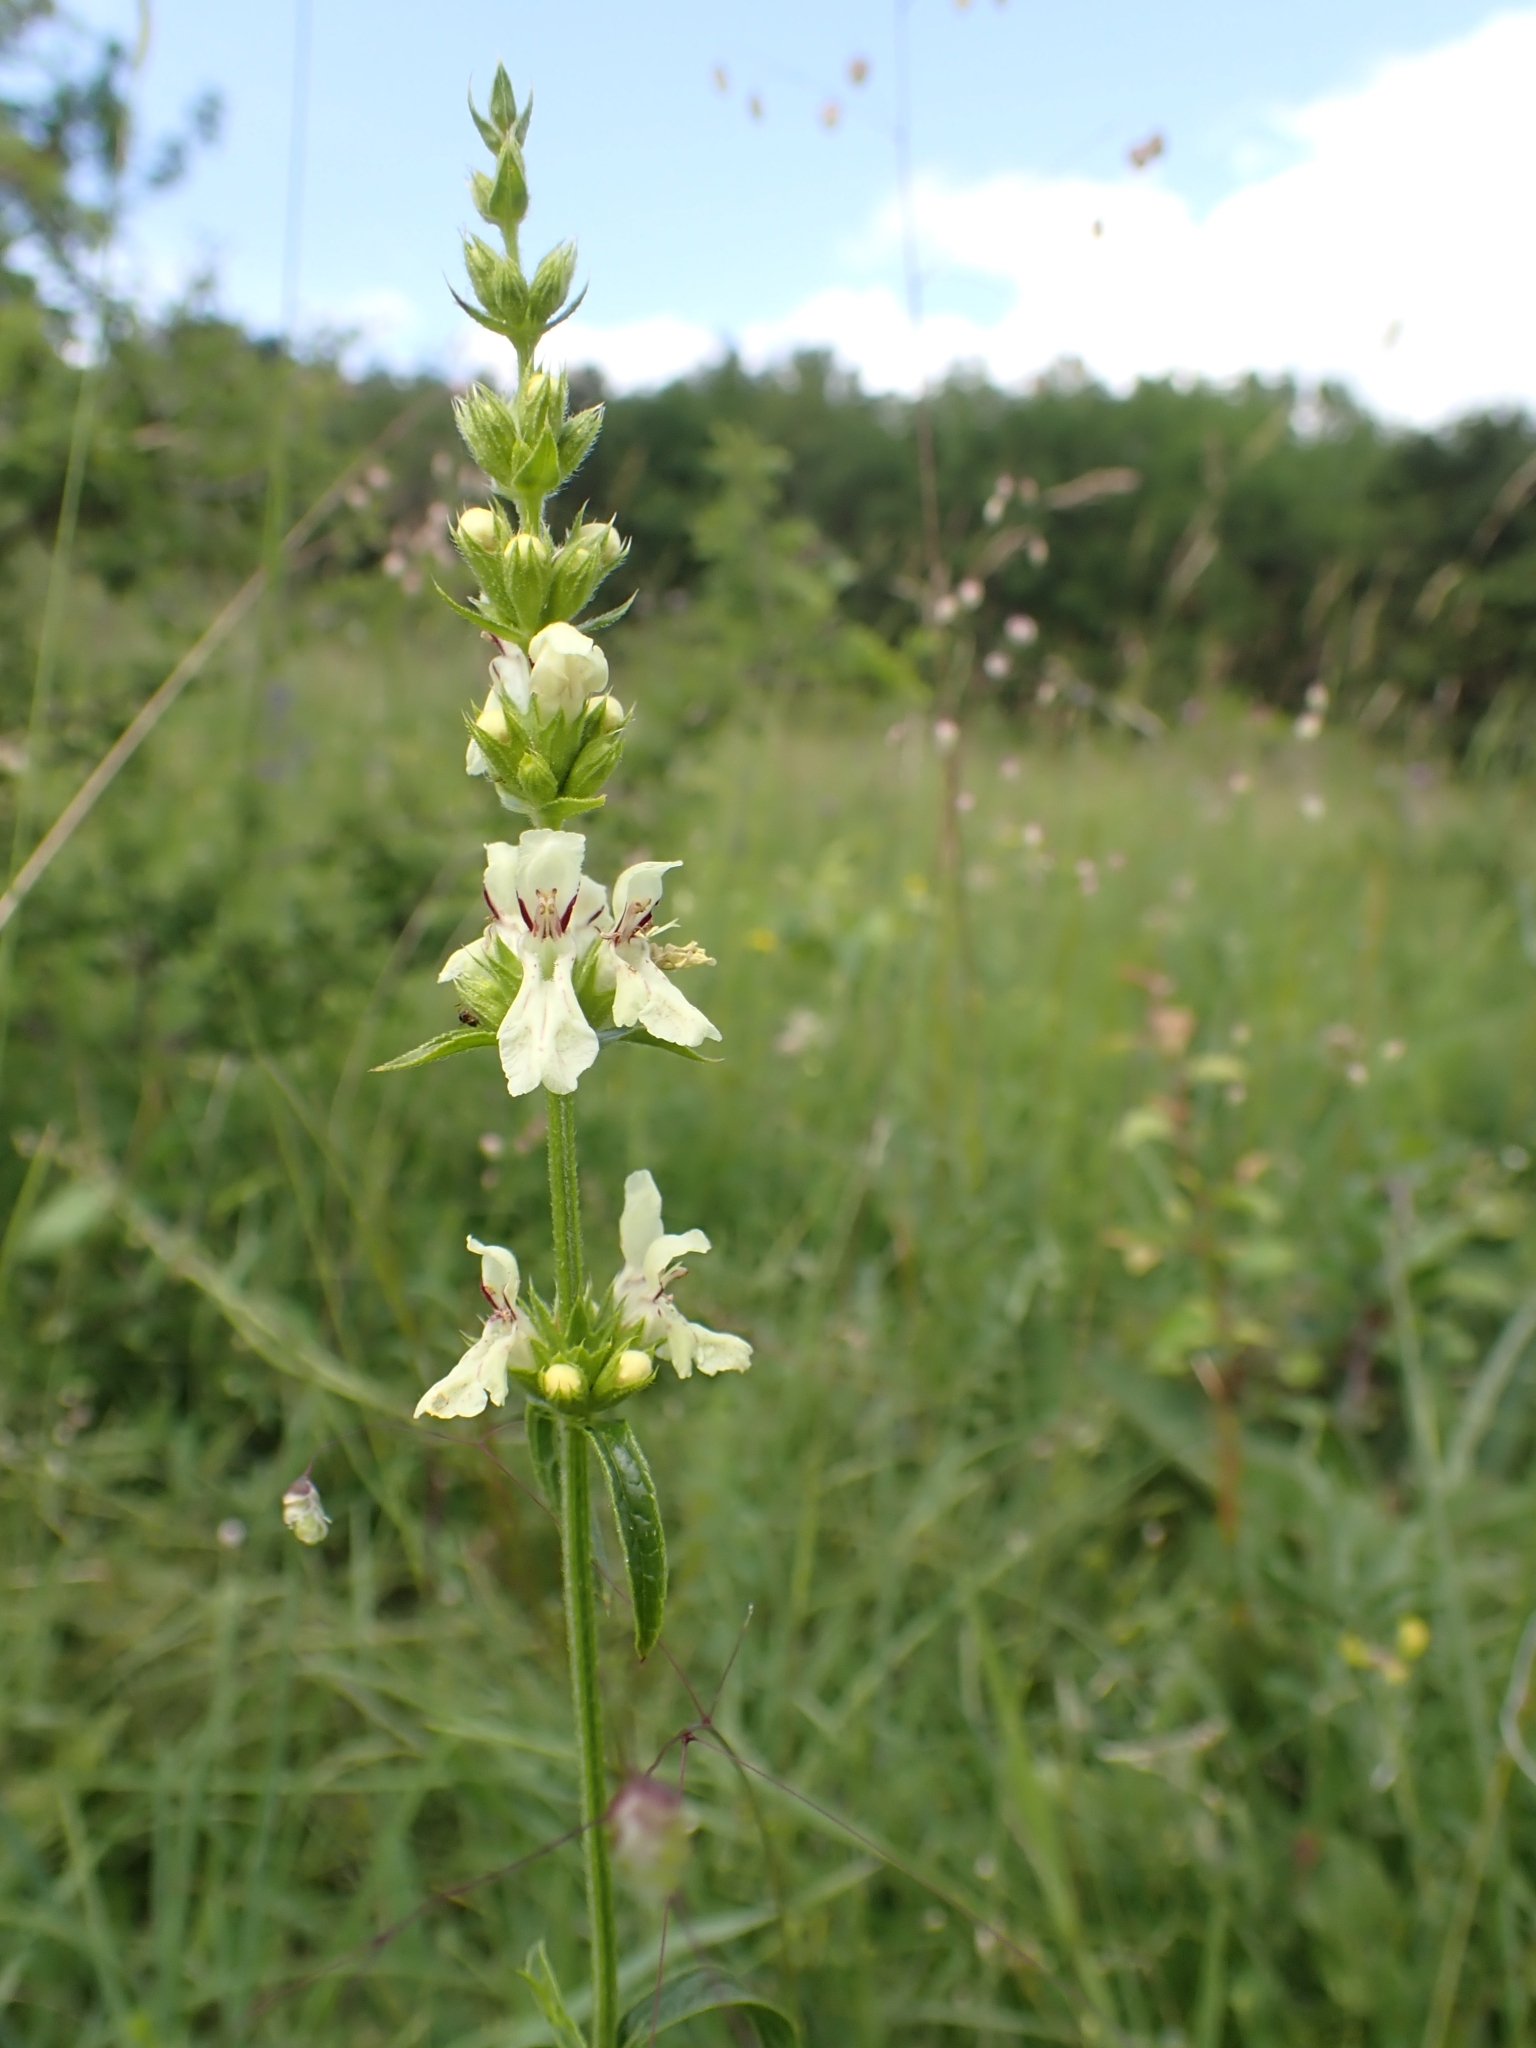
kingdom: Plantae
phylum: Tracheophyta
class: Magnoliopsida
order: Lamiales
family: Lamiaceae
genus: Stachys
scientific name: Stachys recta
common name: Perennial yellow-woundwort
